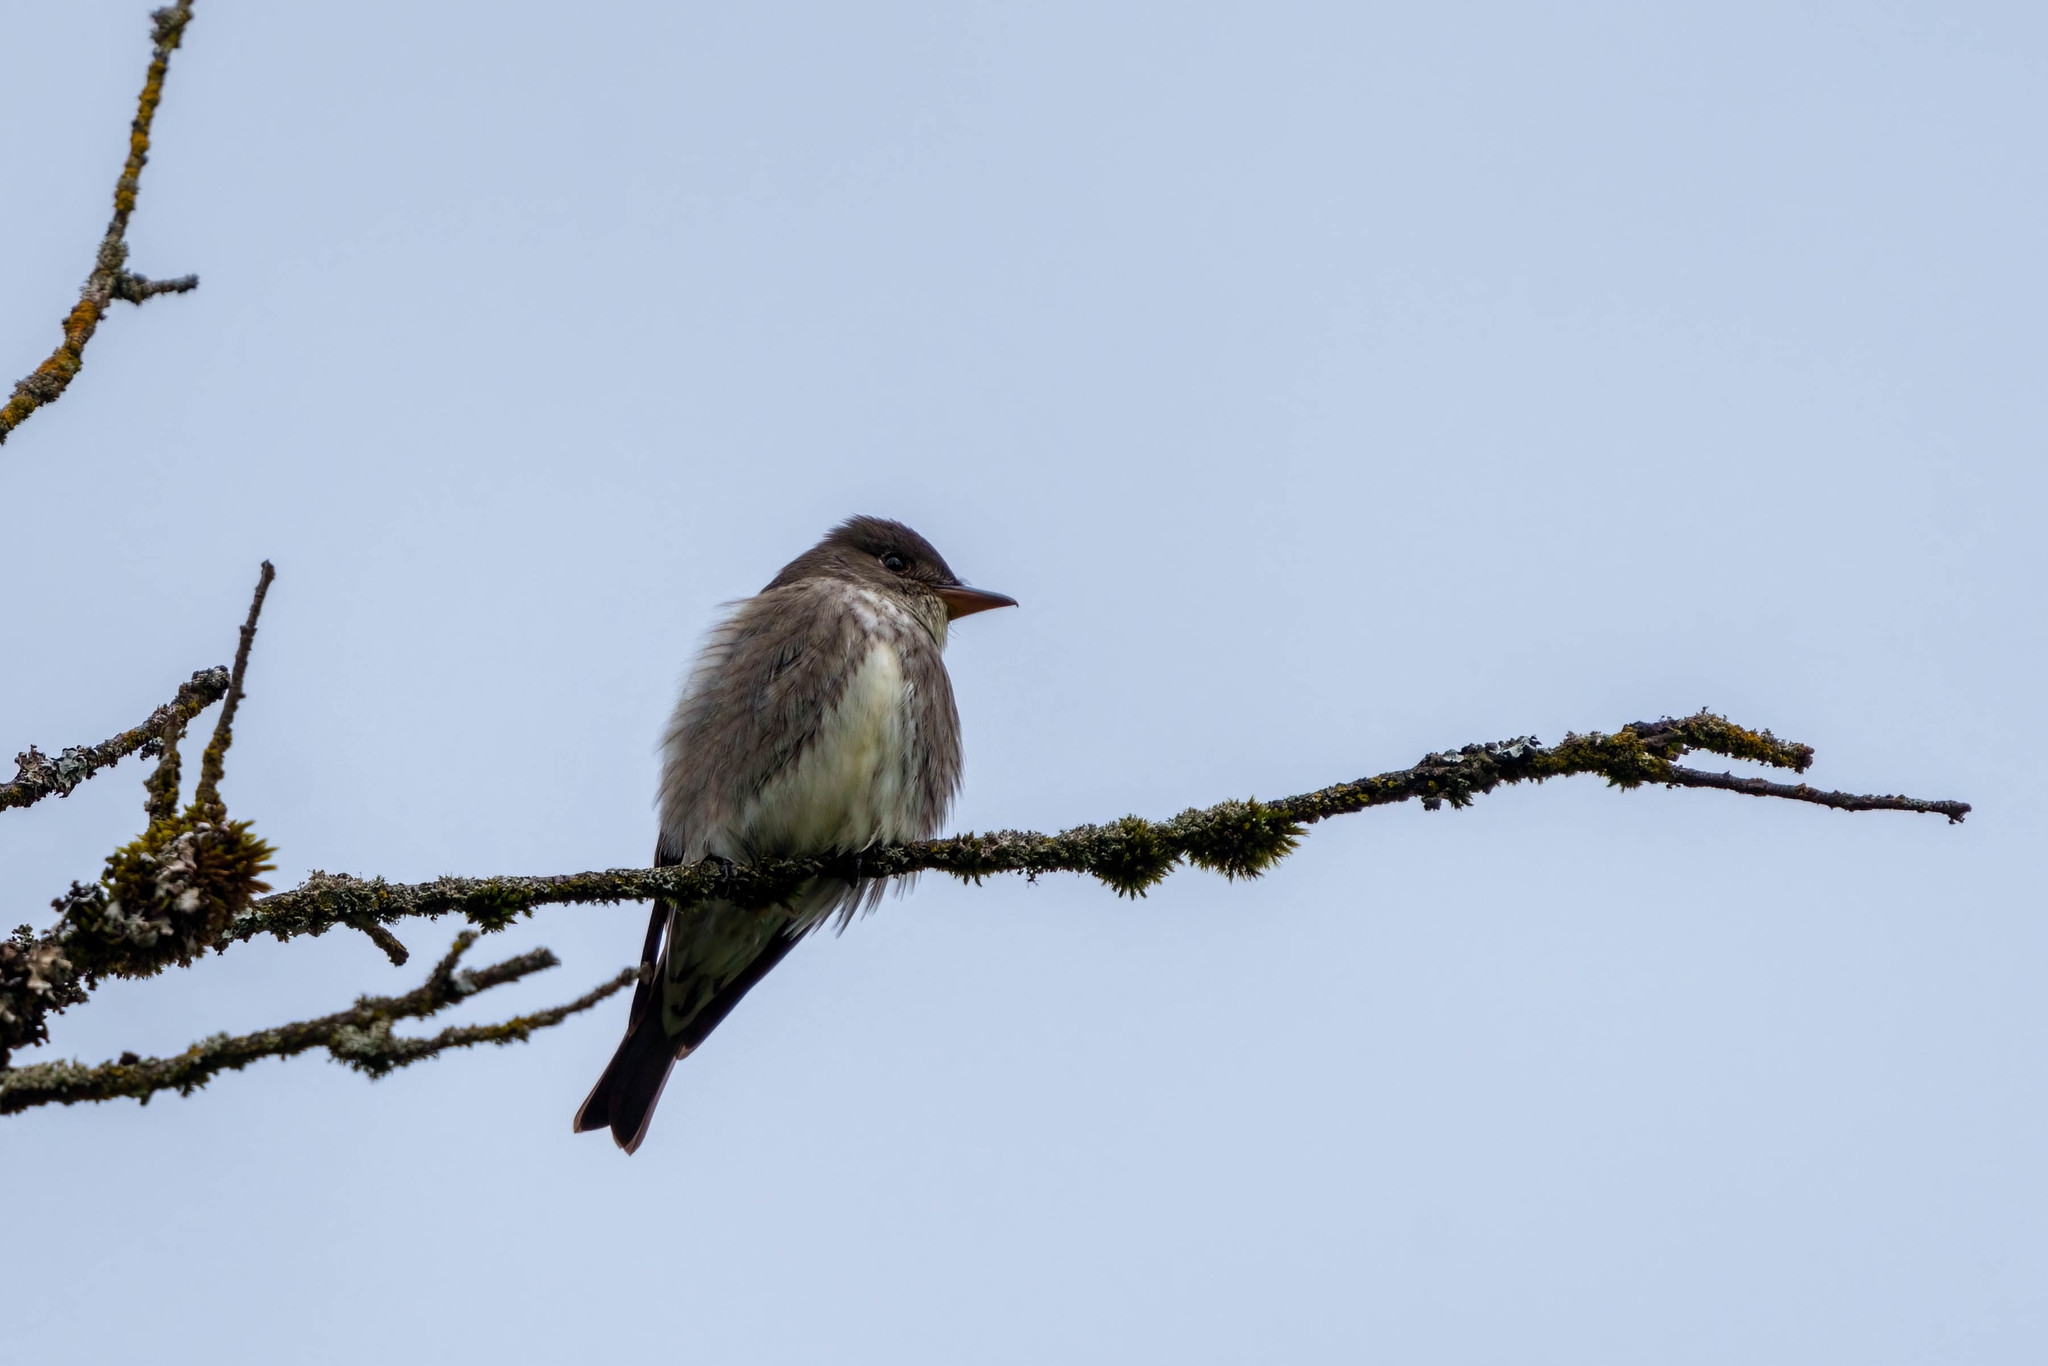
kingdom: Animalia
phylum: Chordata
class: Aves
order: Passeriformes
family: Tyrannidae
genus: Contopus
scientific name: Contopus cooperi
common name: Olive-sided flycatcher
